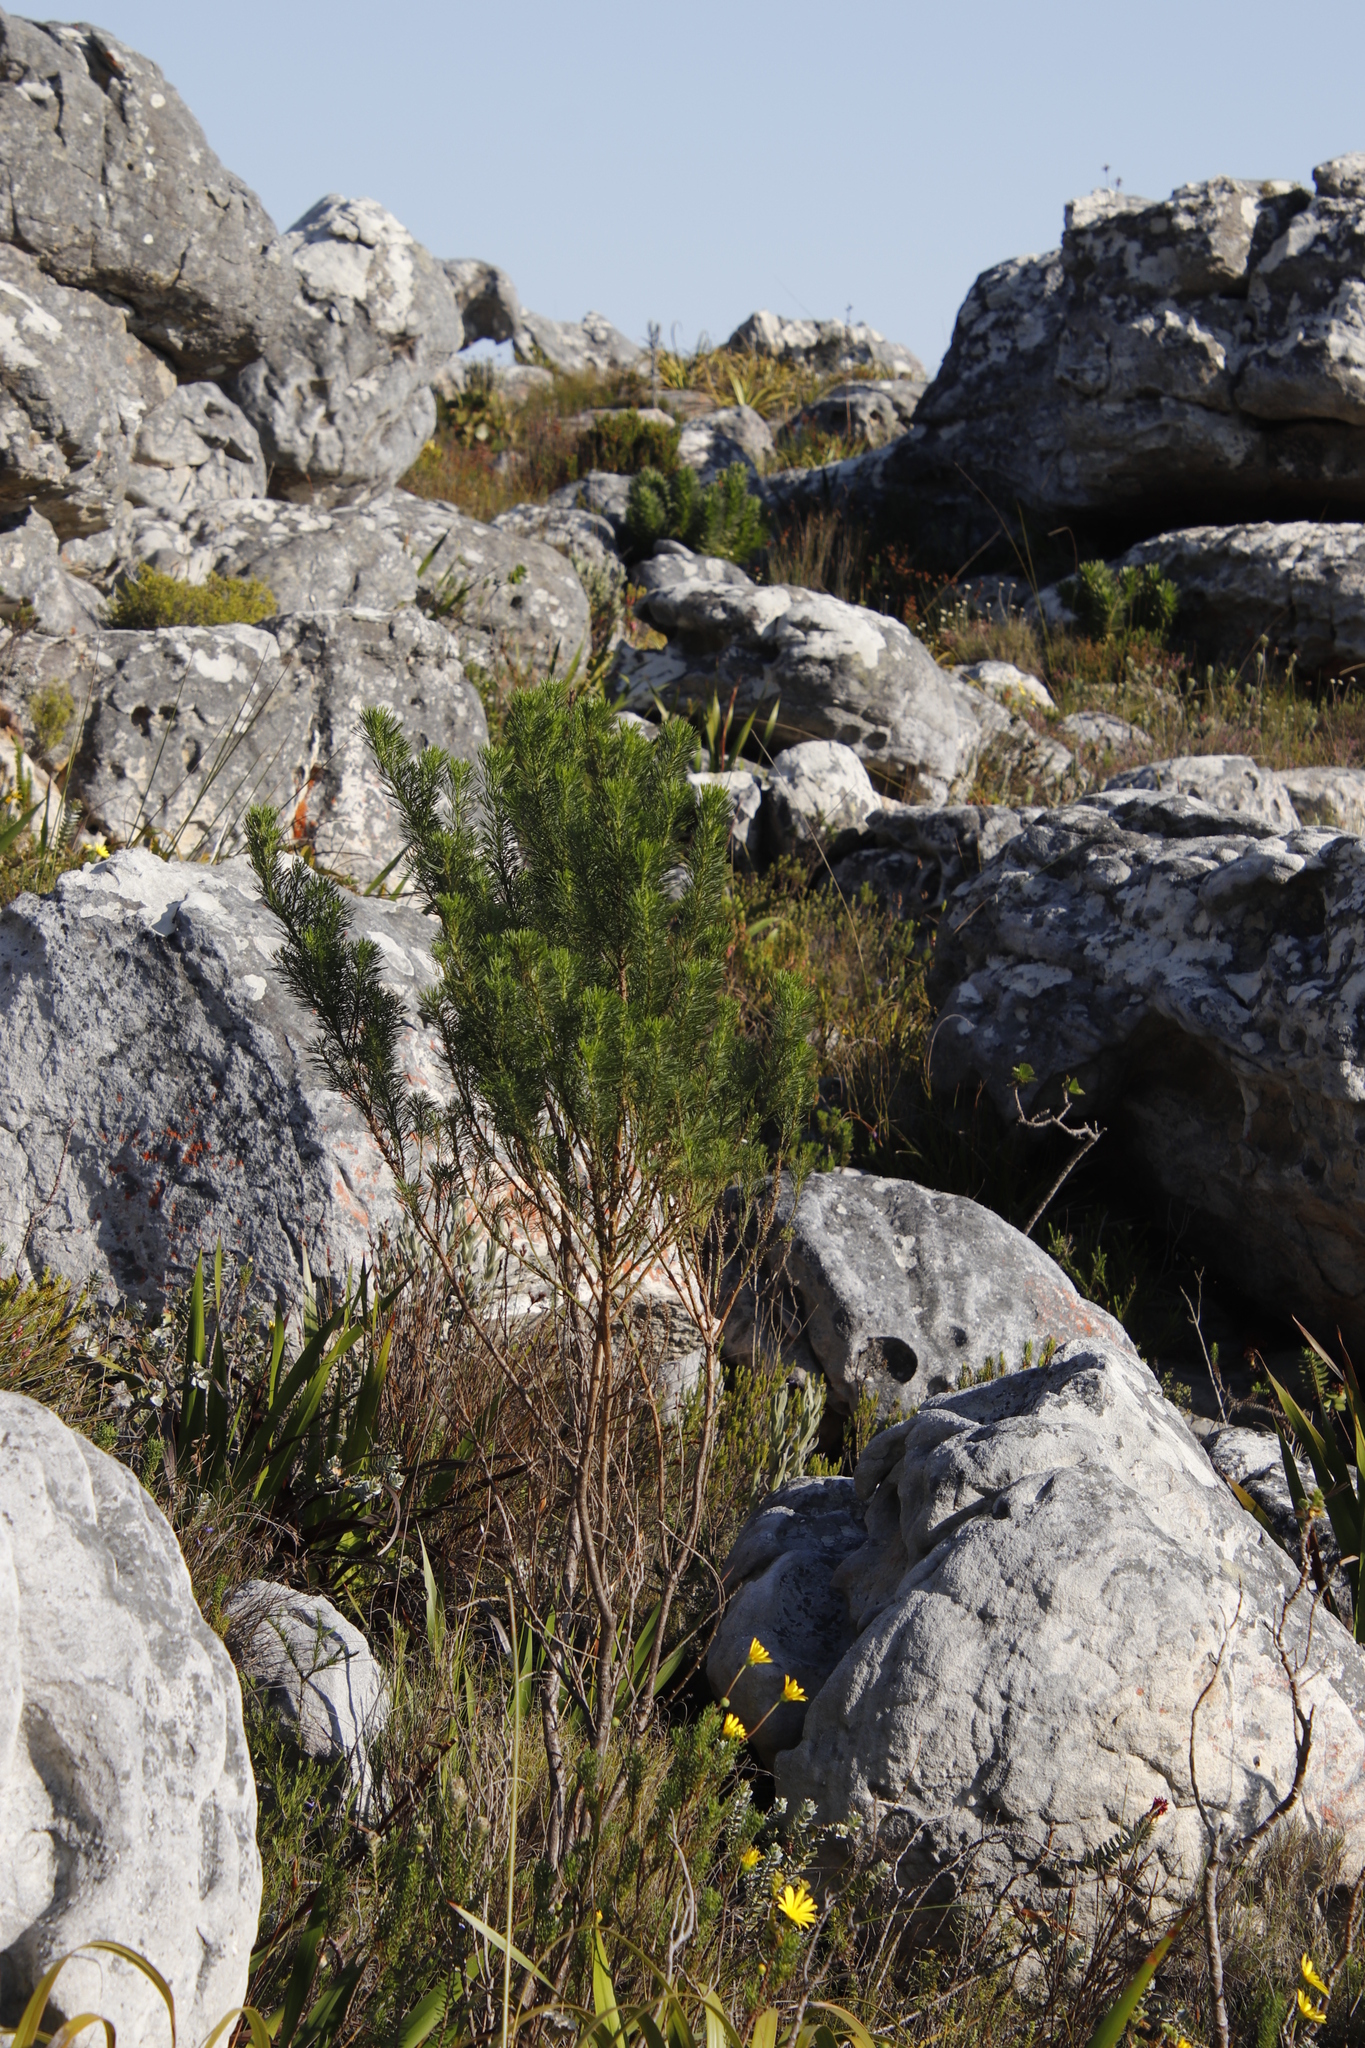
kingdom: Plantae
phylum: Tracheophyta
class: Magnoliopsida
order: Fabales
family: Fabaceae
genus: Psoralea
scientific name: Psoralea pinnata
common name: African scurfpea
